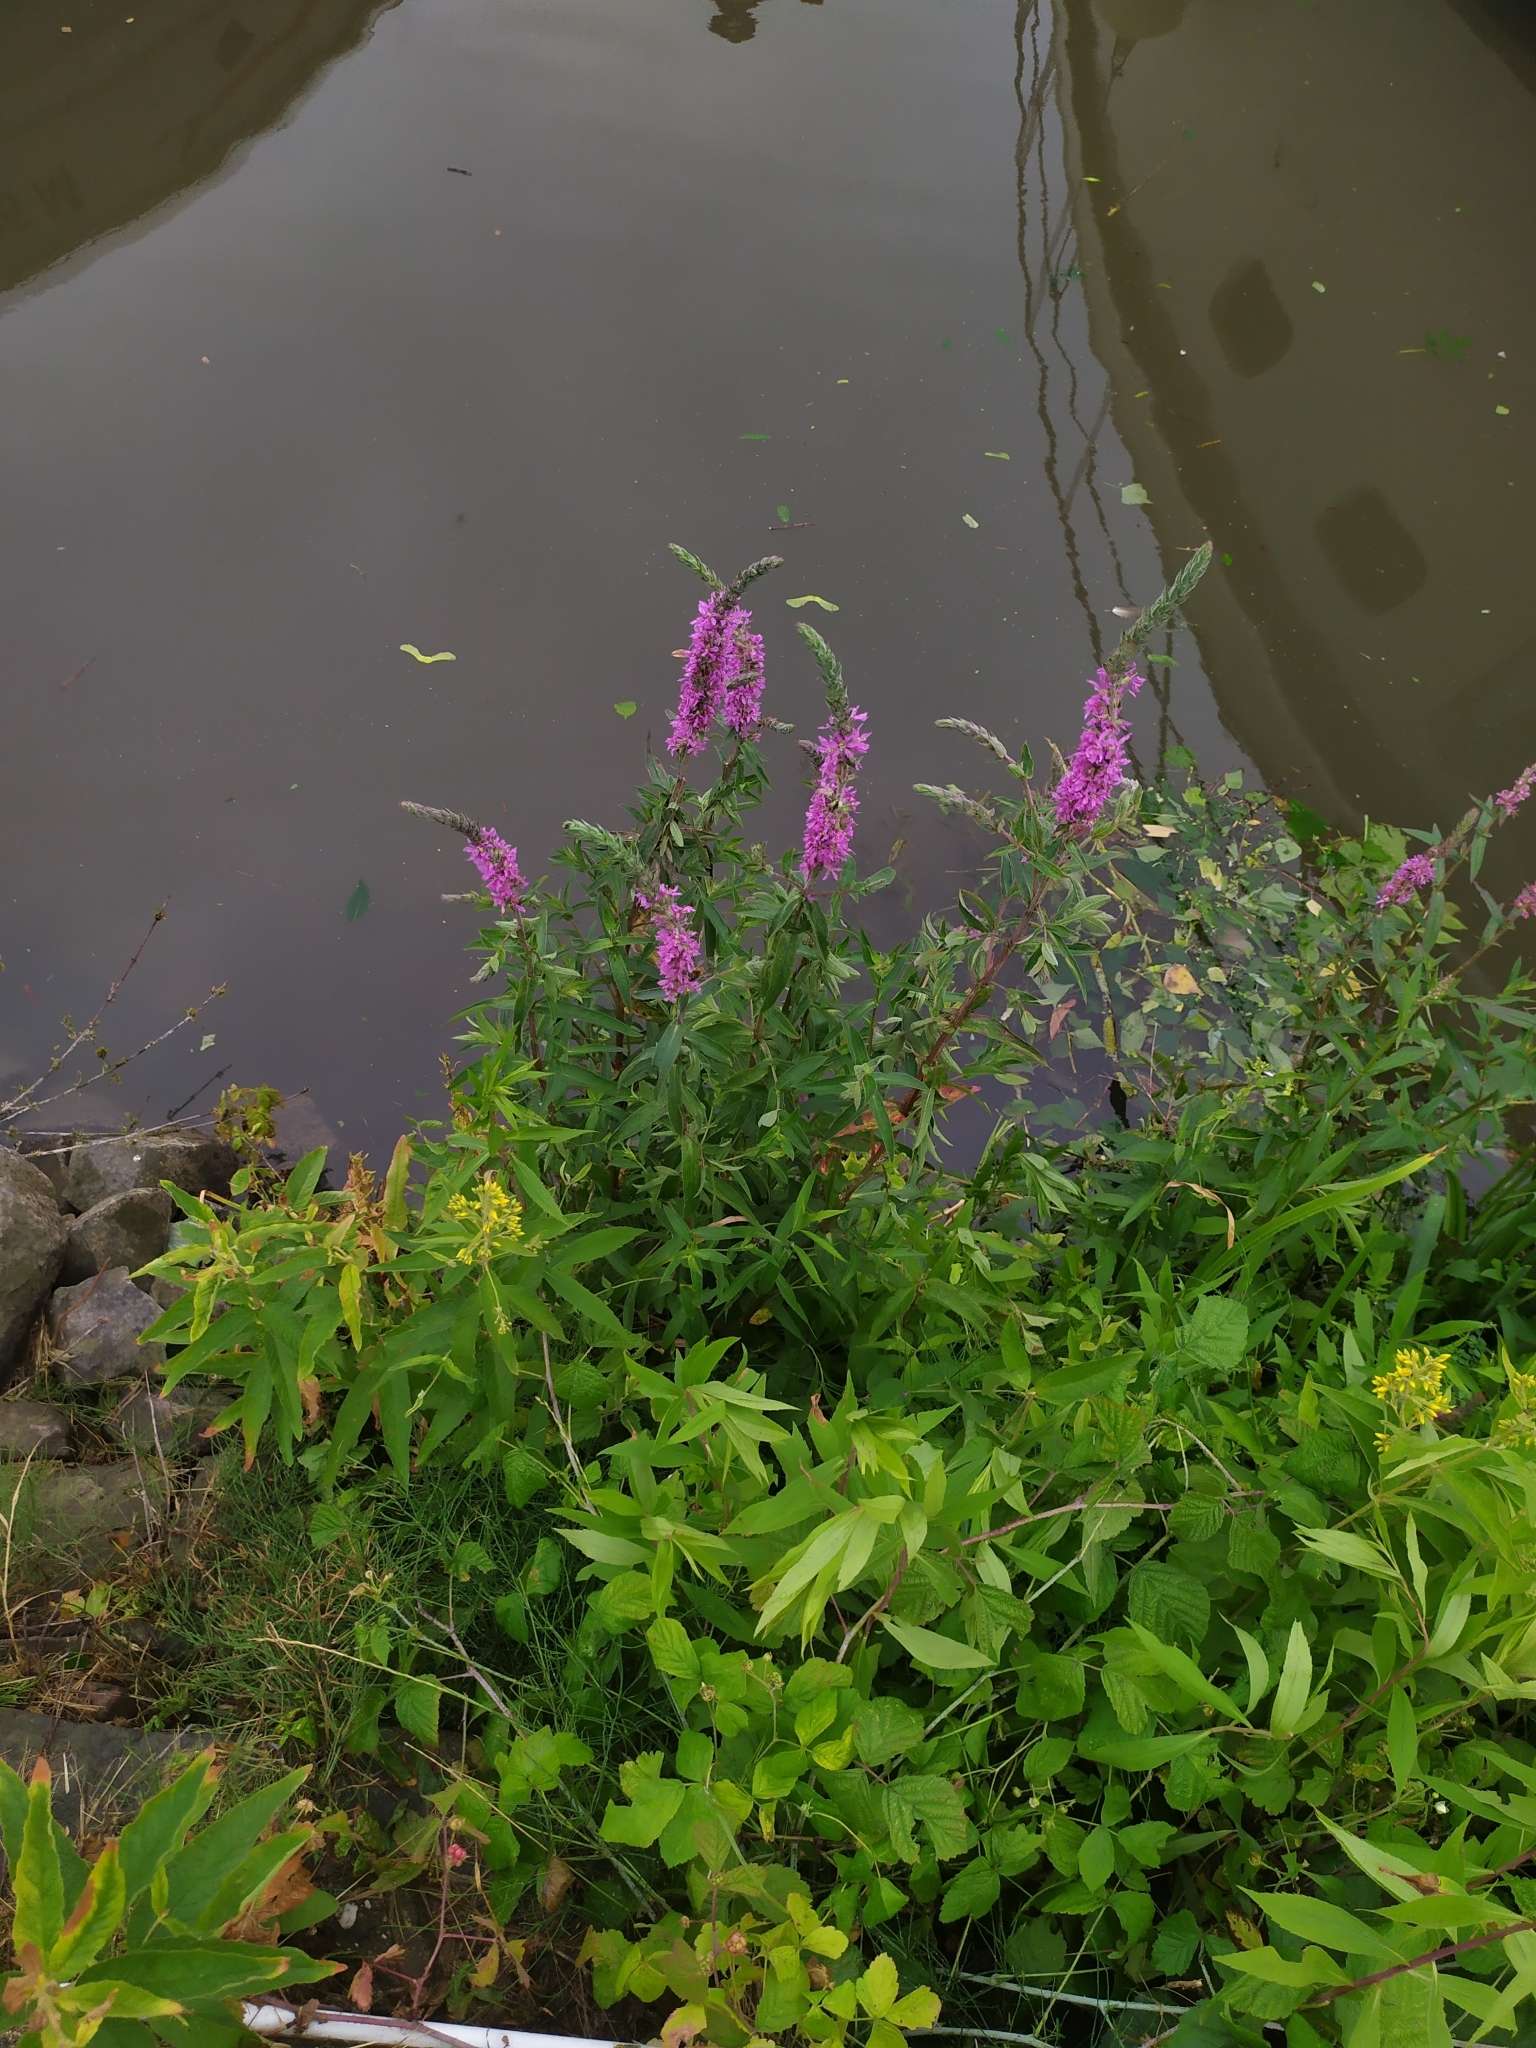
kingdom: Plantae
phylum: Tracheophyta
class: Magnoliopsida
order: Myrtales
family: Lythraceae
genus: Lythrum
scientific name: Lythrum salicaria
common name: Purple loosestrife
